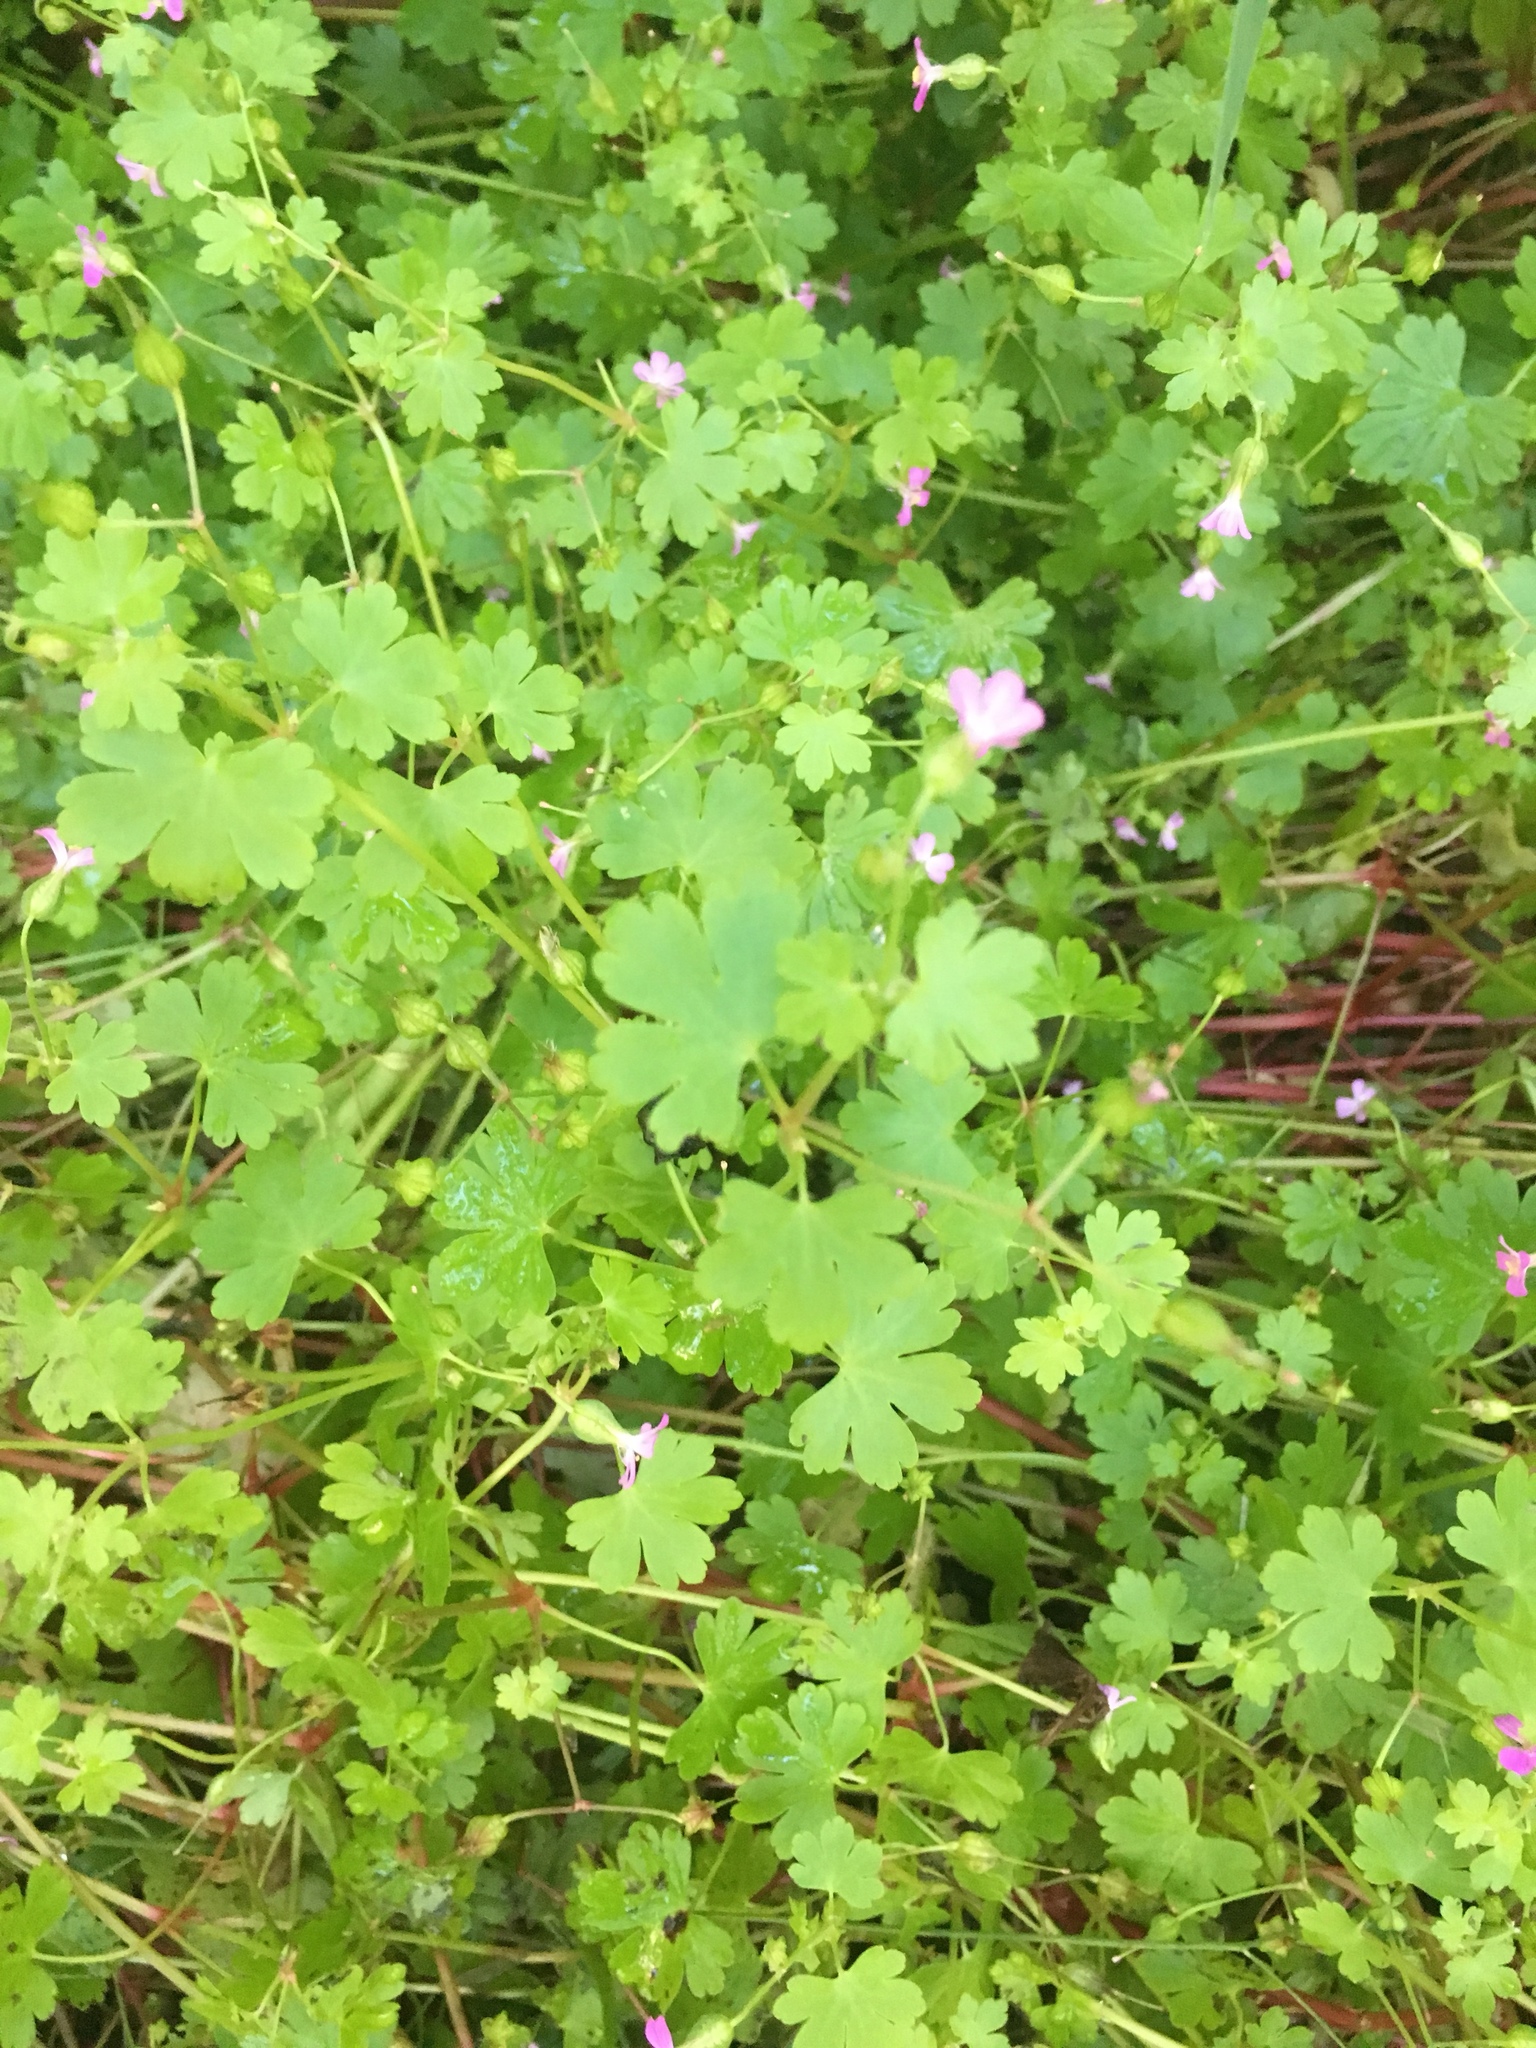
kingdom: Plantae
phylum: Tracheophyta
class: Magnoliopsida
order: Geraniales
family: Geraniaceae
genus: Geranium
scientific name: Geranium lucidum
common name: Shining crane's-bill
